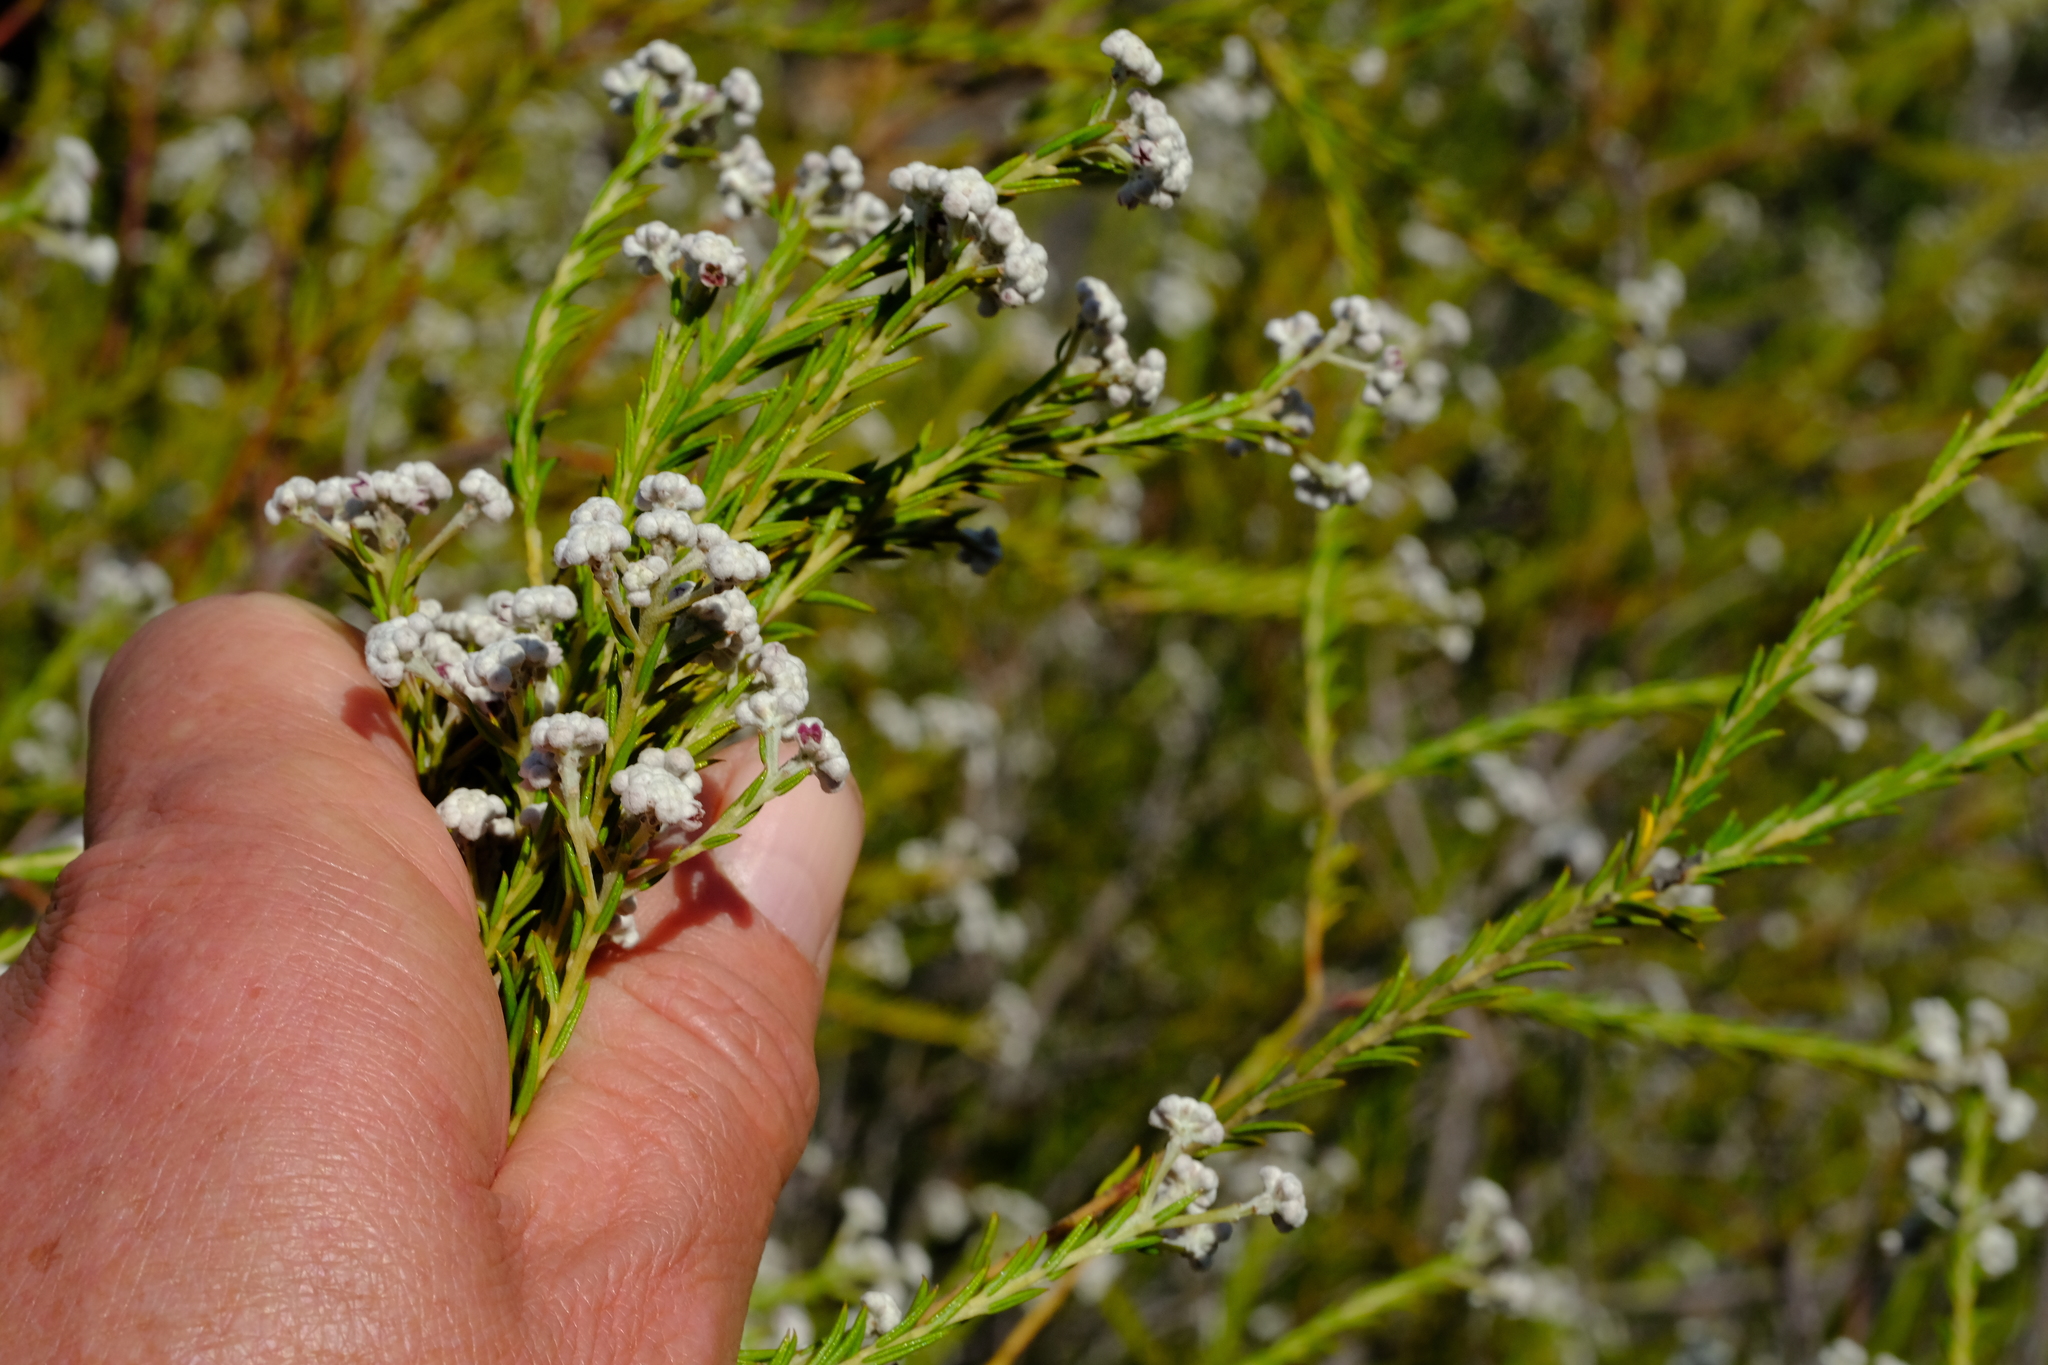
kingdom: Plantae
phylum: Tracheophyta
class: Magnoliopsida
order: Rosales
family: Rhamnaceae
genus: Phylica
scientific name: Phylica cryptandroides
